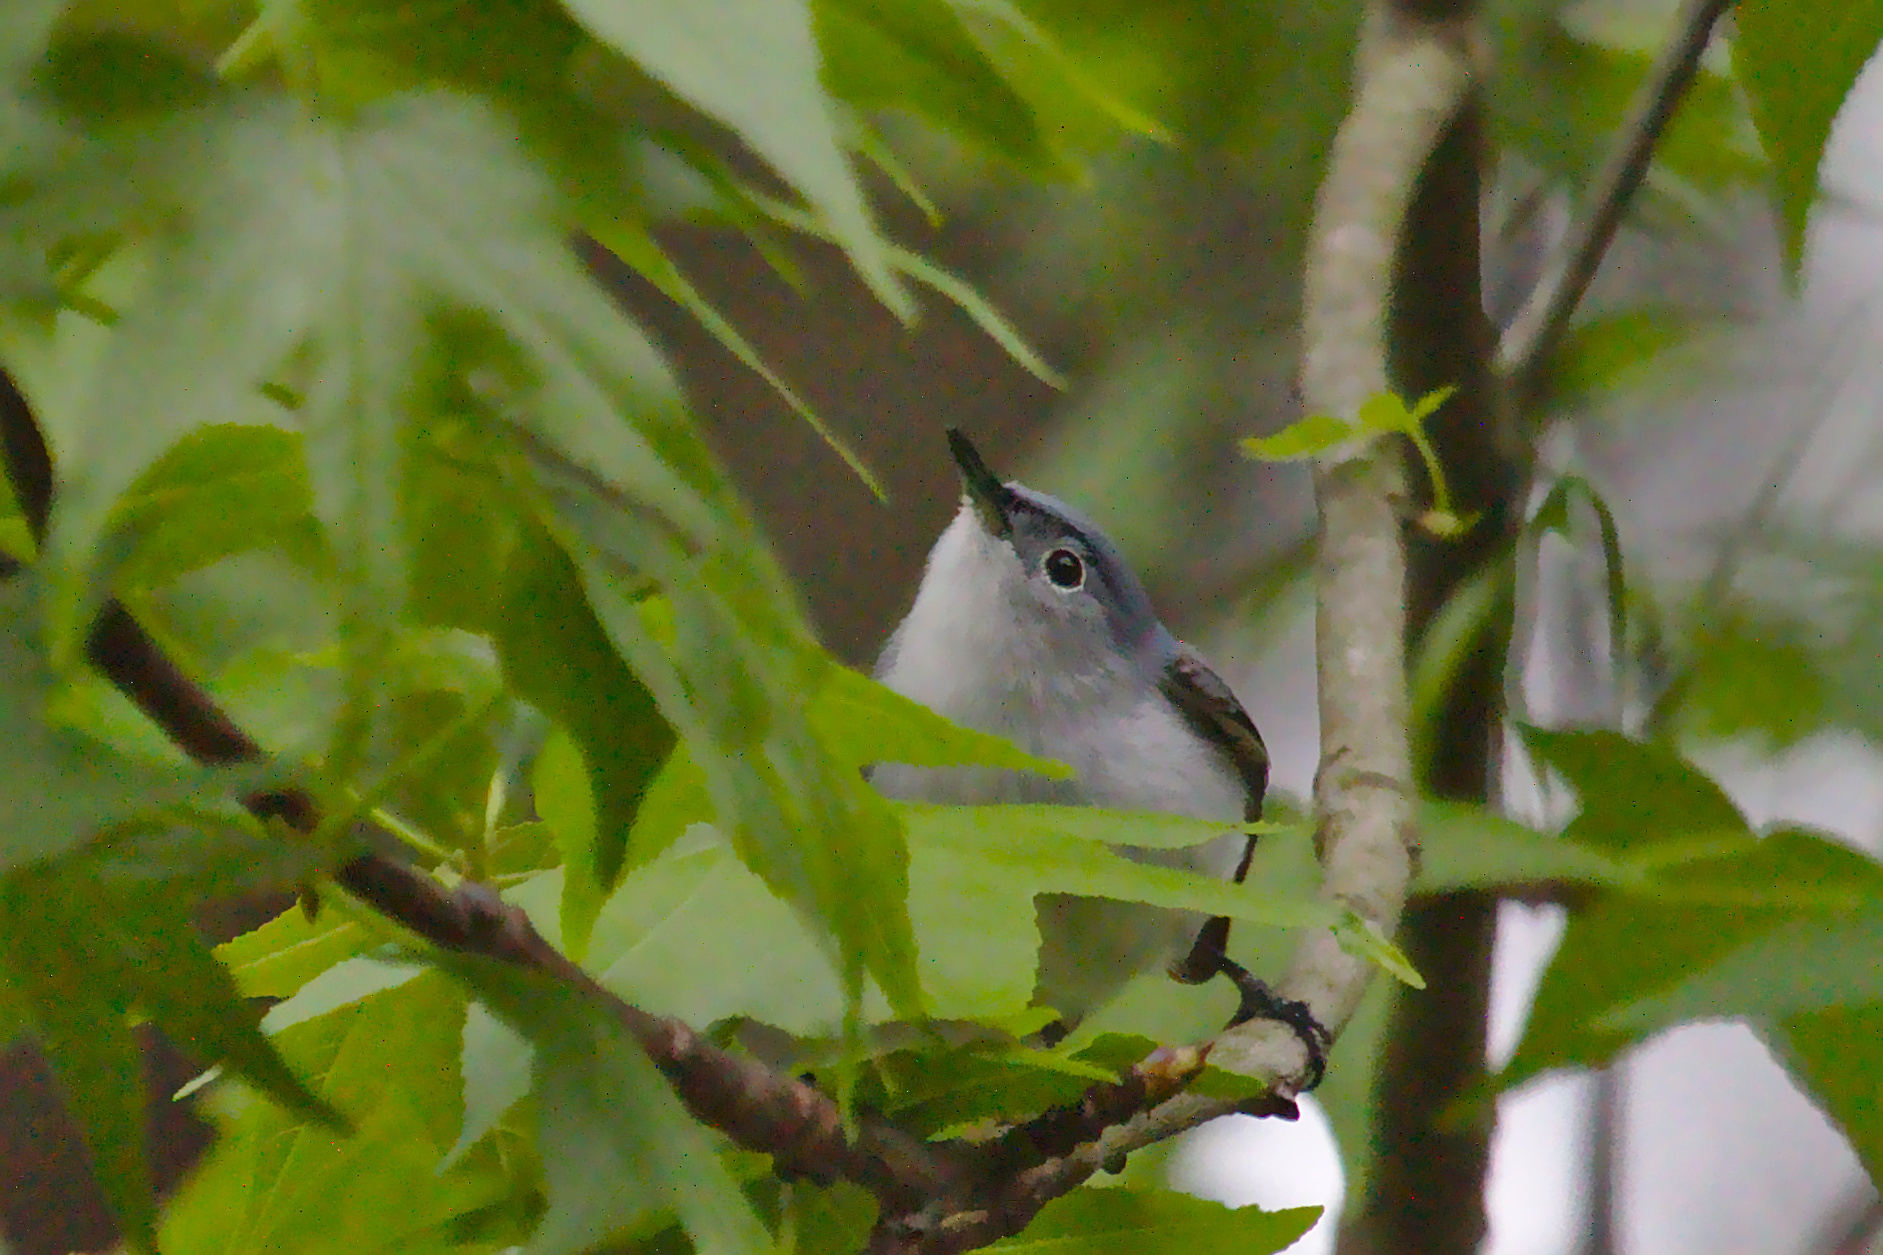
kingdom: Animalia
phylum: Chordata
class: Aves
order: Passeriformes
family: Polioptilidae
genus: Polioptila
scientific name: Polioptila caerulea
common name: Blue-gray gnatcatcher
